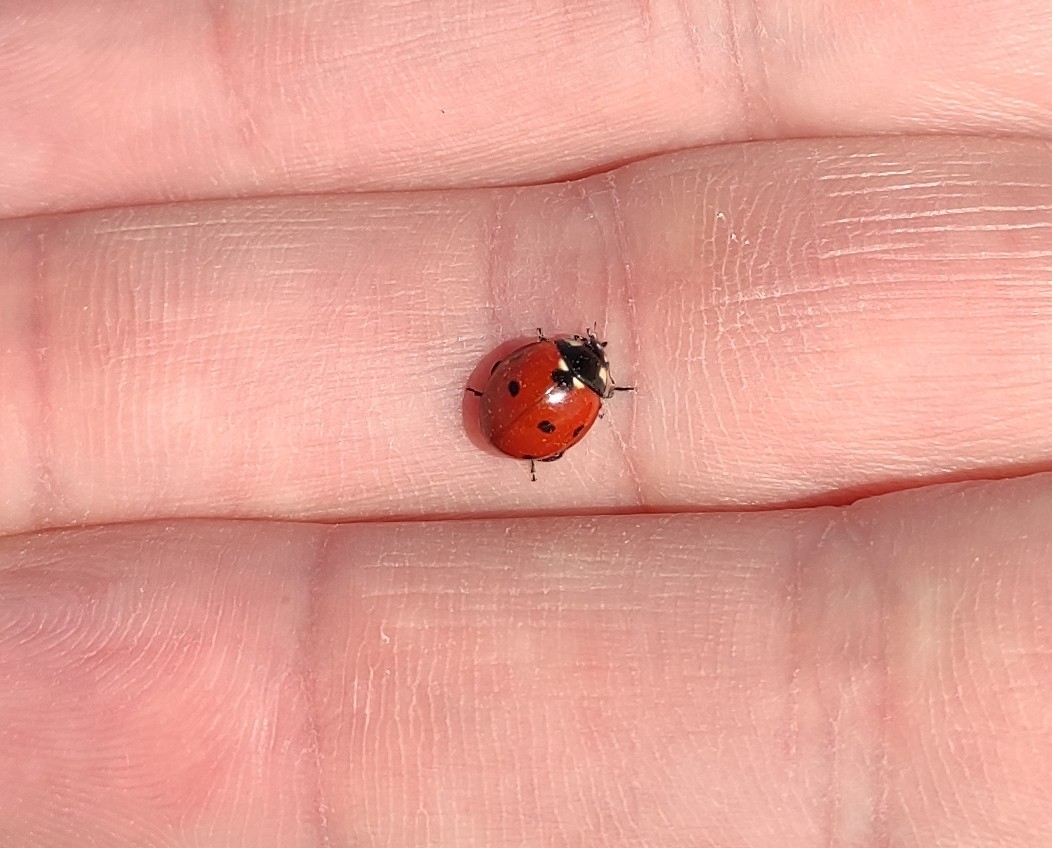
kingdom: Animalia
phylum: Arthropoda
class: Insecta
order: Coleoptera
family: Coccinellidae
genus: Coccinella
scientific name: Coccinella septempunctata
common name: Sevenspotted lady beetle
